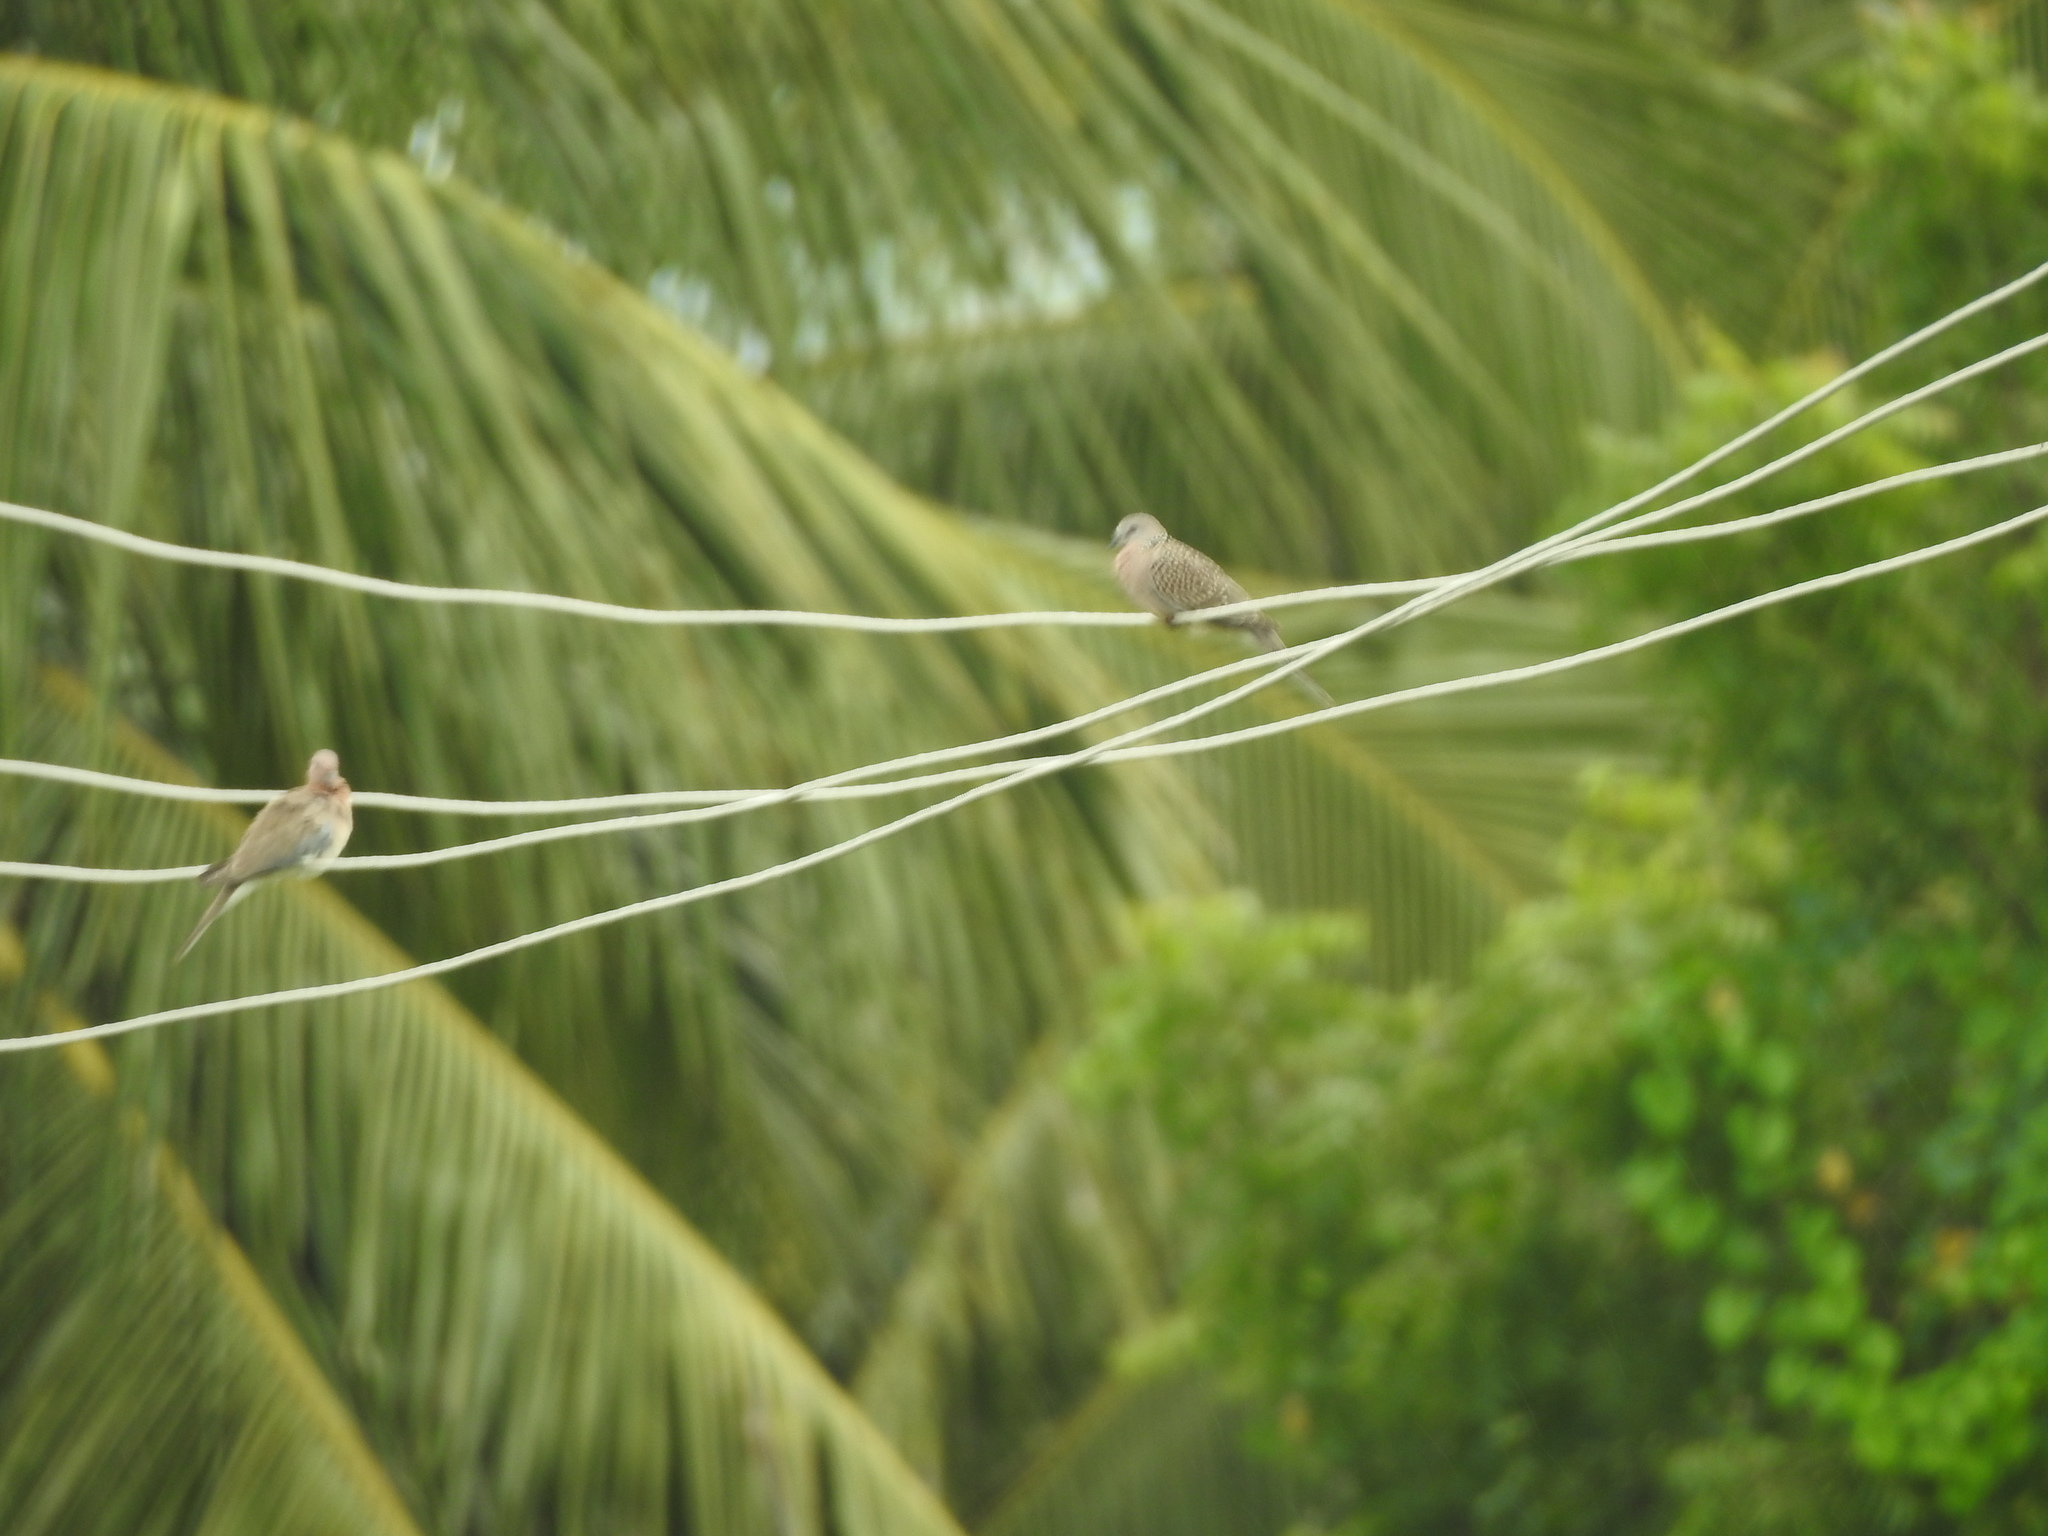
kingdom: Animalia
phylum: Chordata
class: Aves
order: Columbiformes
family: Columbidae
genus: Spilopelia
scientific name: Spilopelia chinensis
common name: Spotted dove
